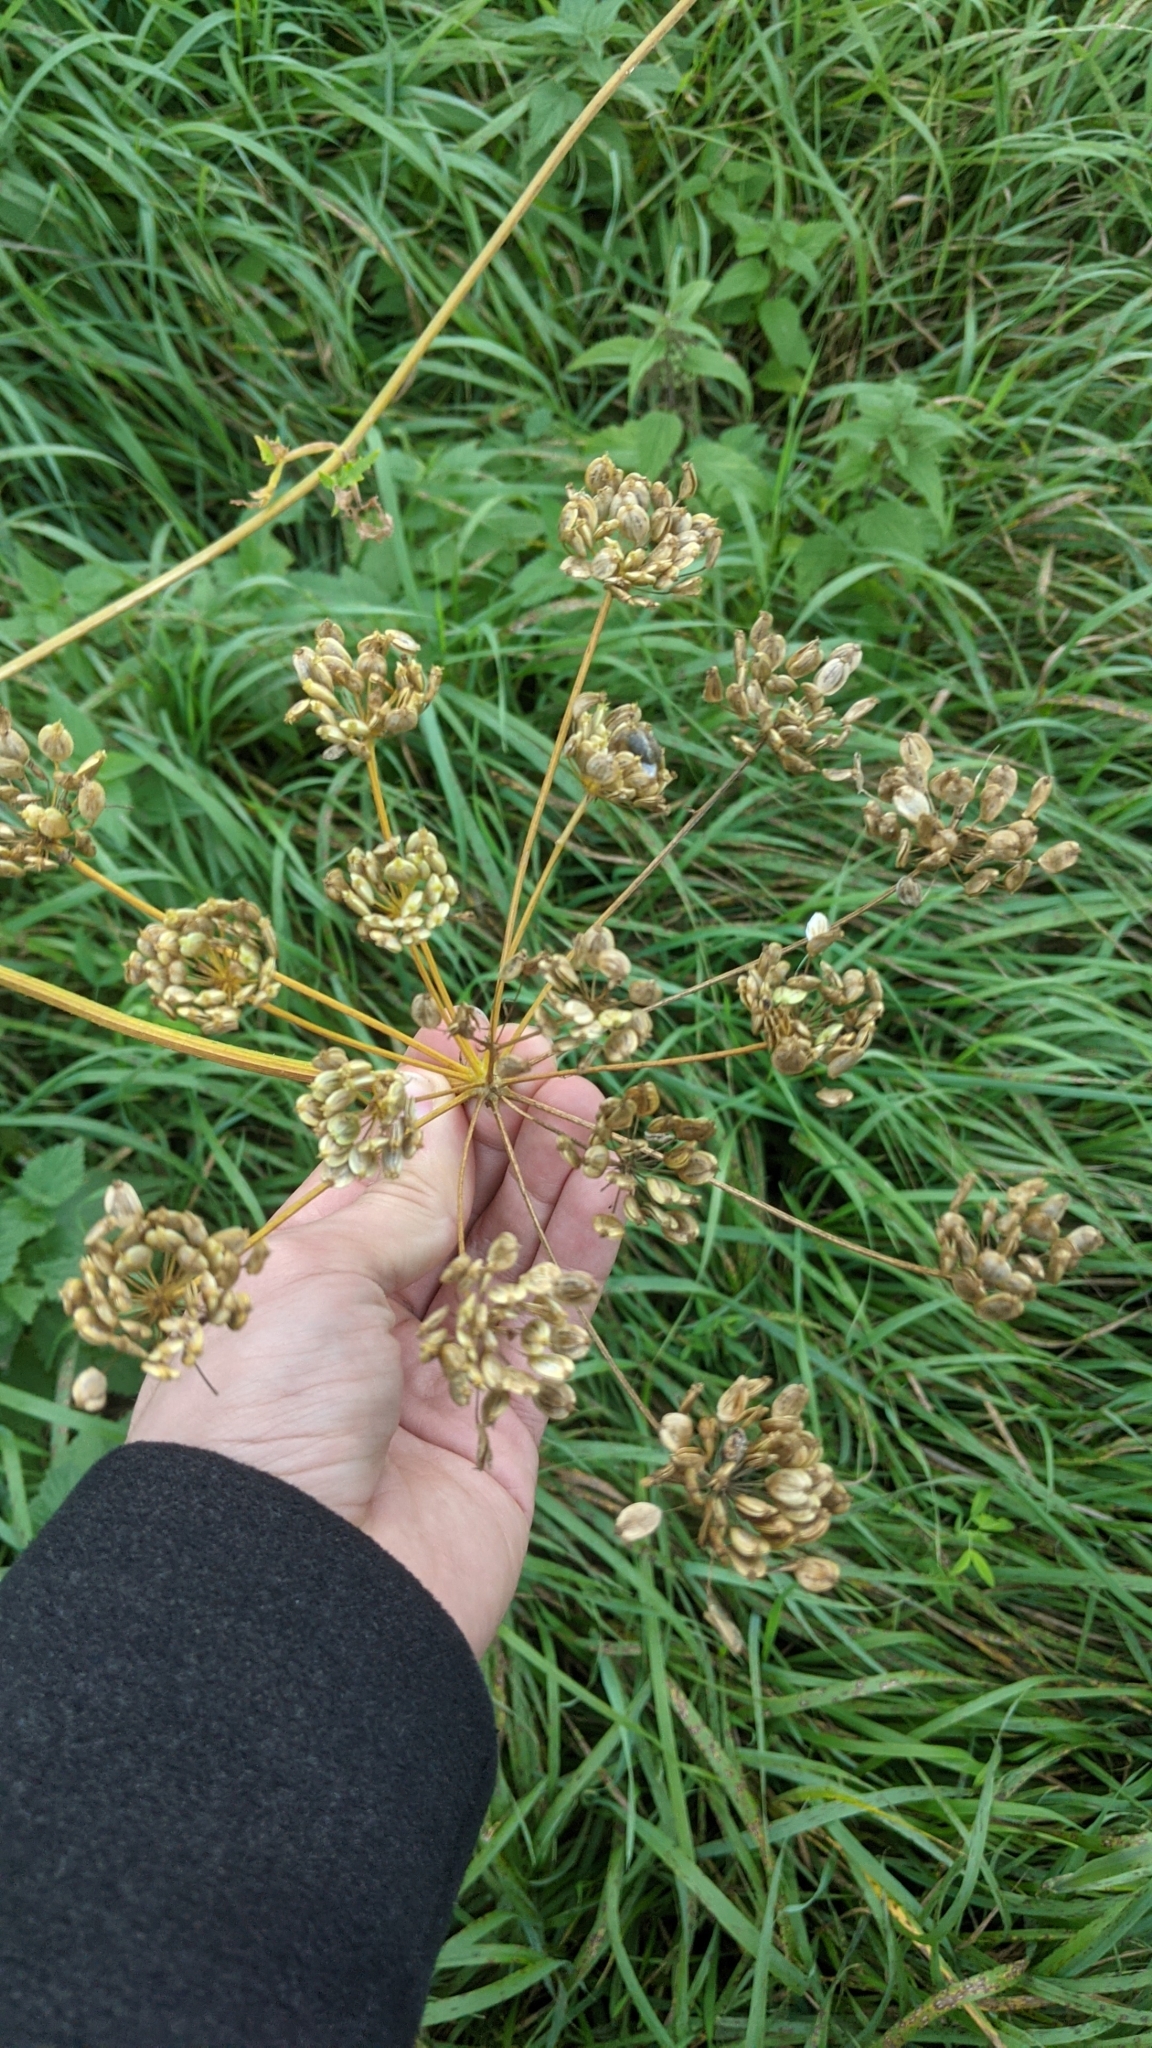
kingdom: Plantae
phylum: Tracheophyta
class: Magnoliopsida
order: Apiales
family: Apiaceae
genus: Heracleum
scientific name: Heracleum sphondylium
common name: Hogweed
